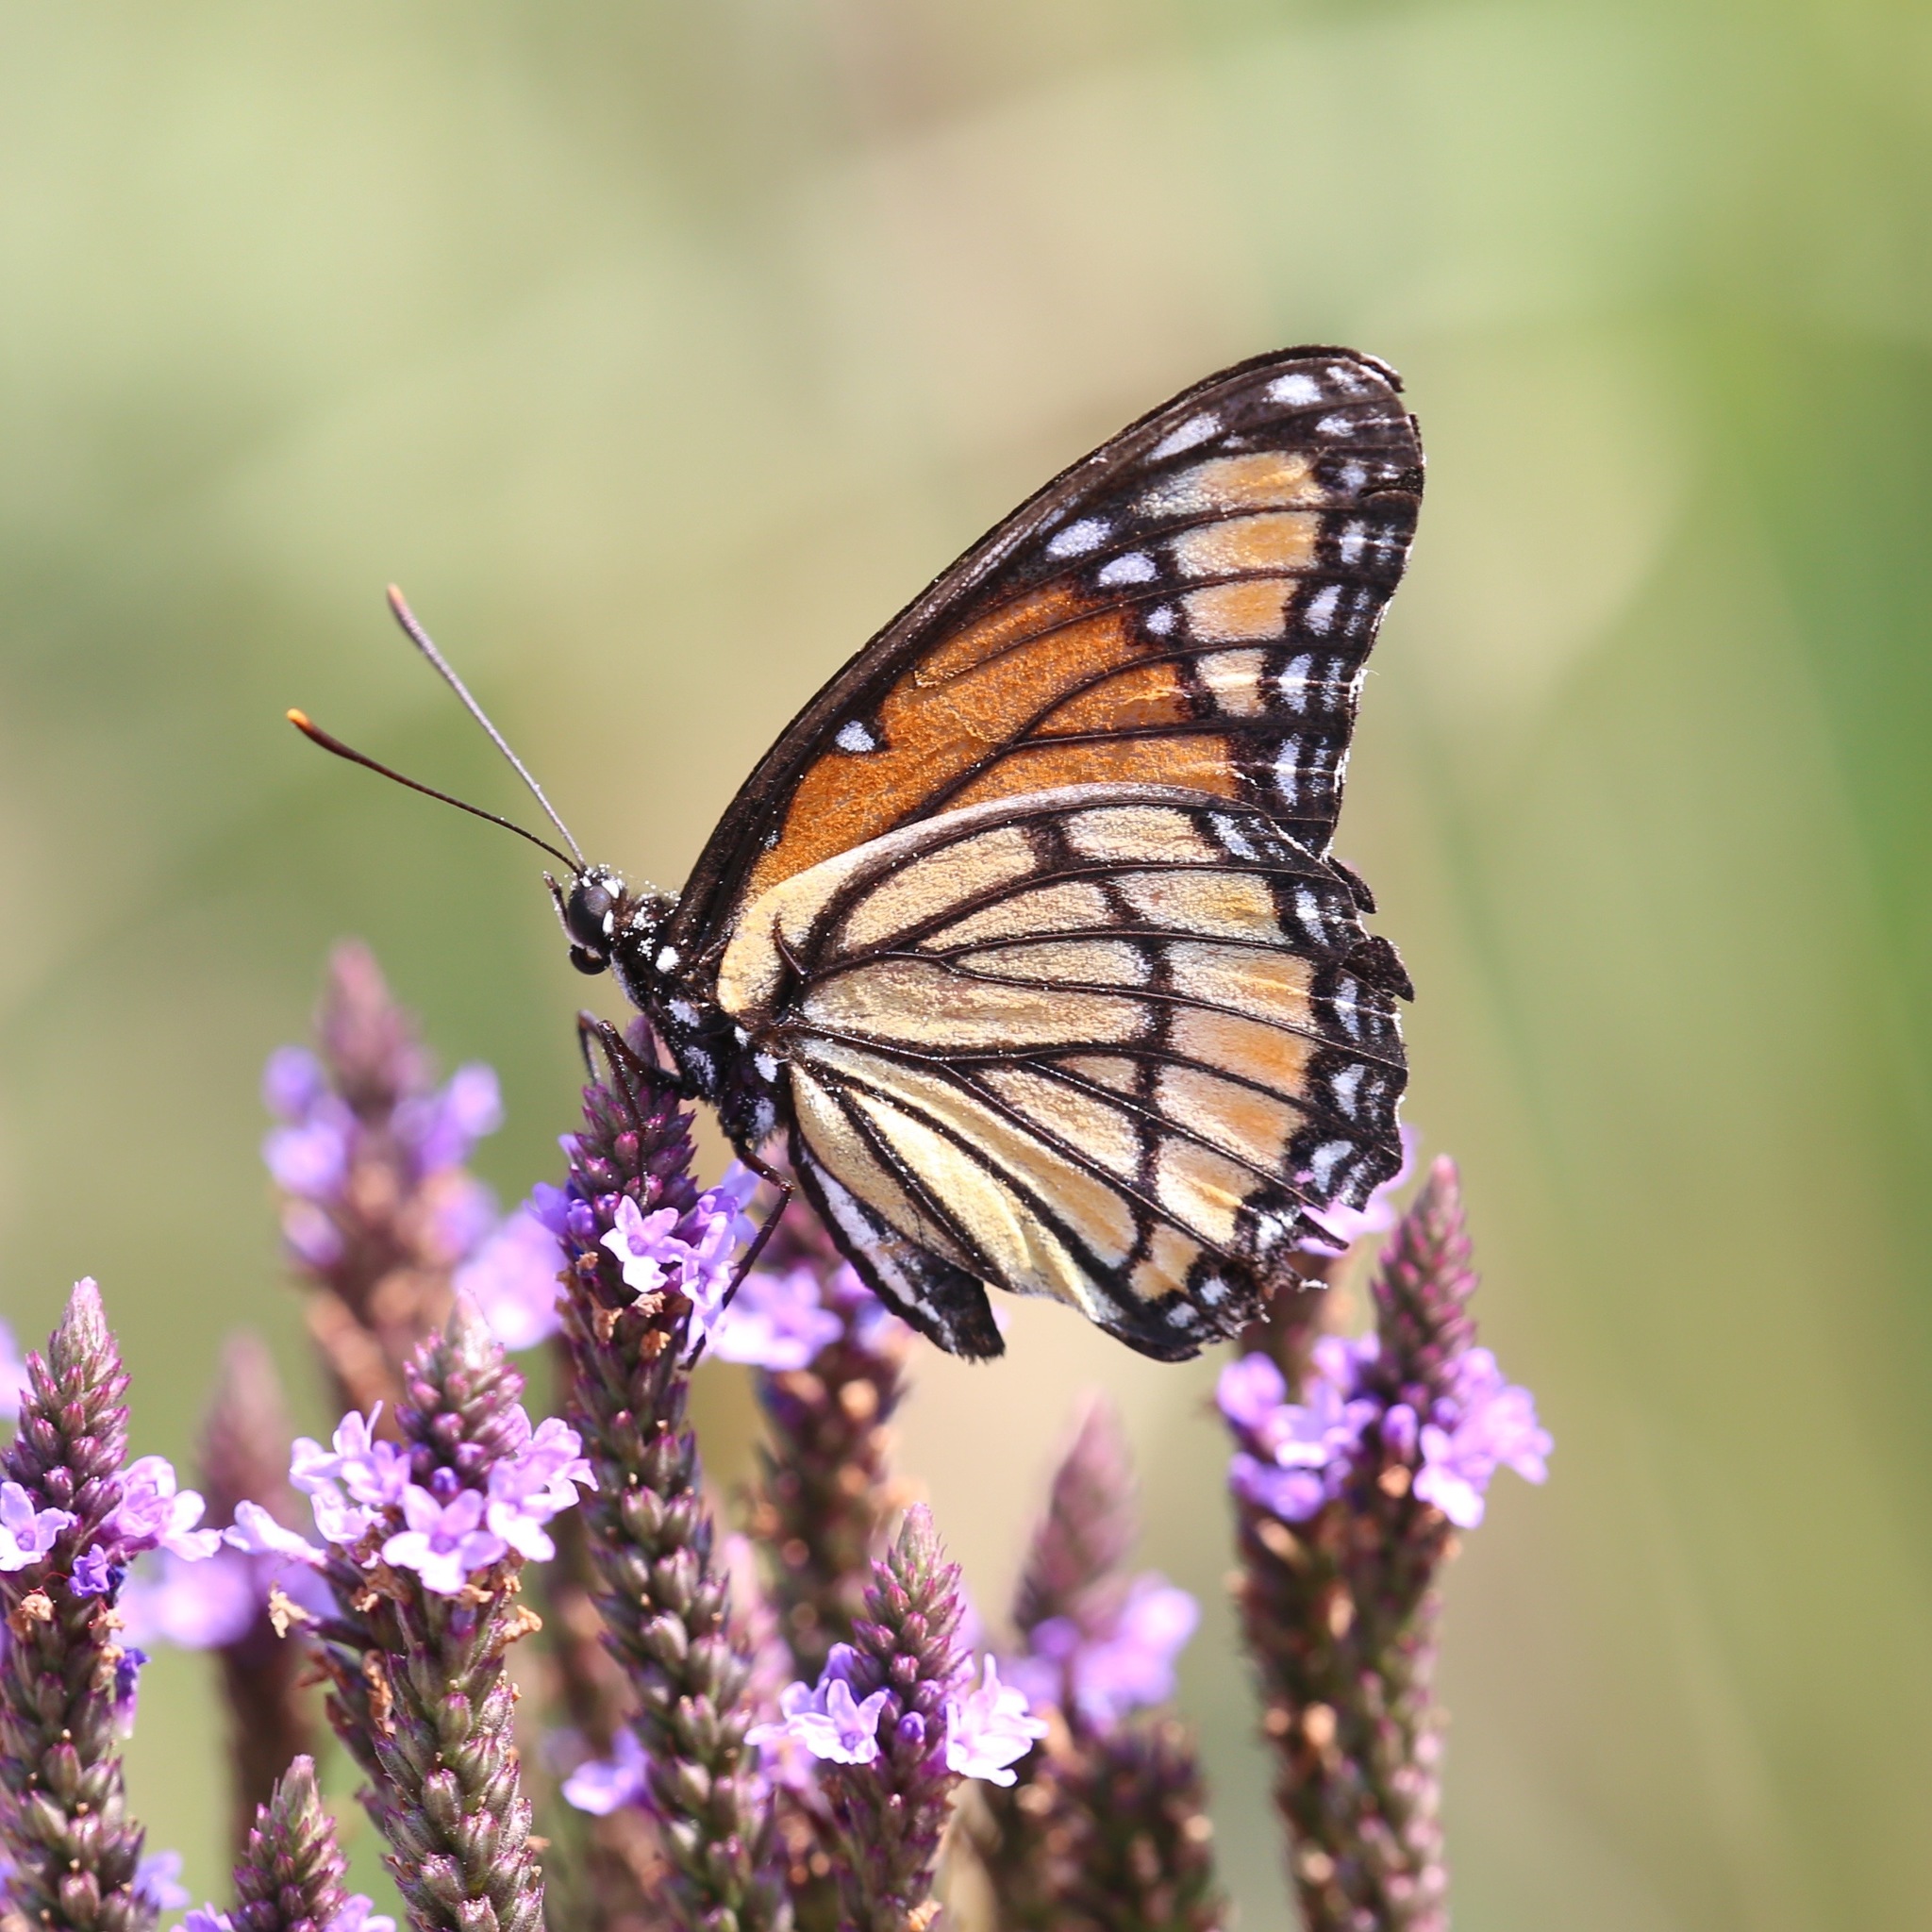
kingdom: Animalia
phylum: Arthropoda
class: Insecta
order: Lepidoptera
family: Nymphalidae
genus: Limenitis
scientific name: Limenitis archippus
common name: Viceroy
